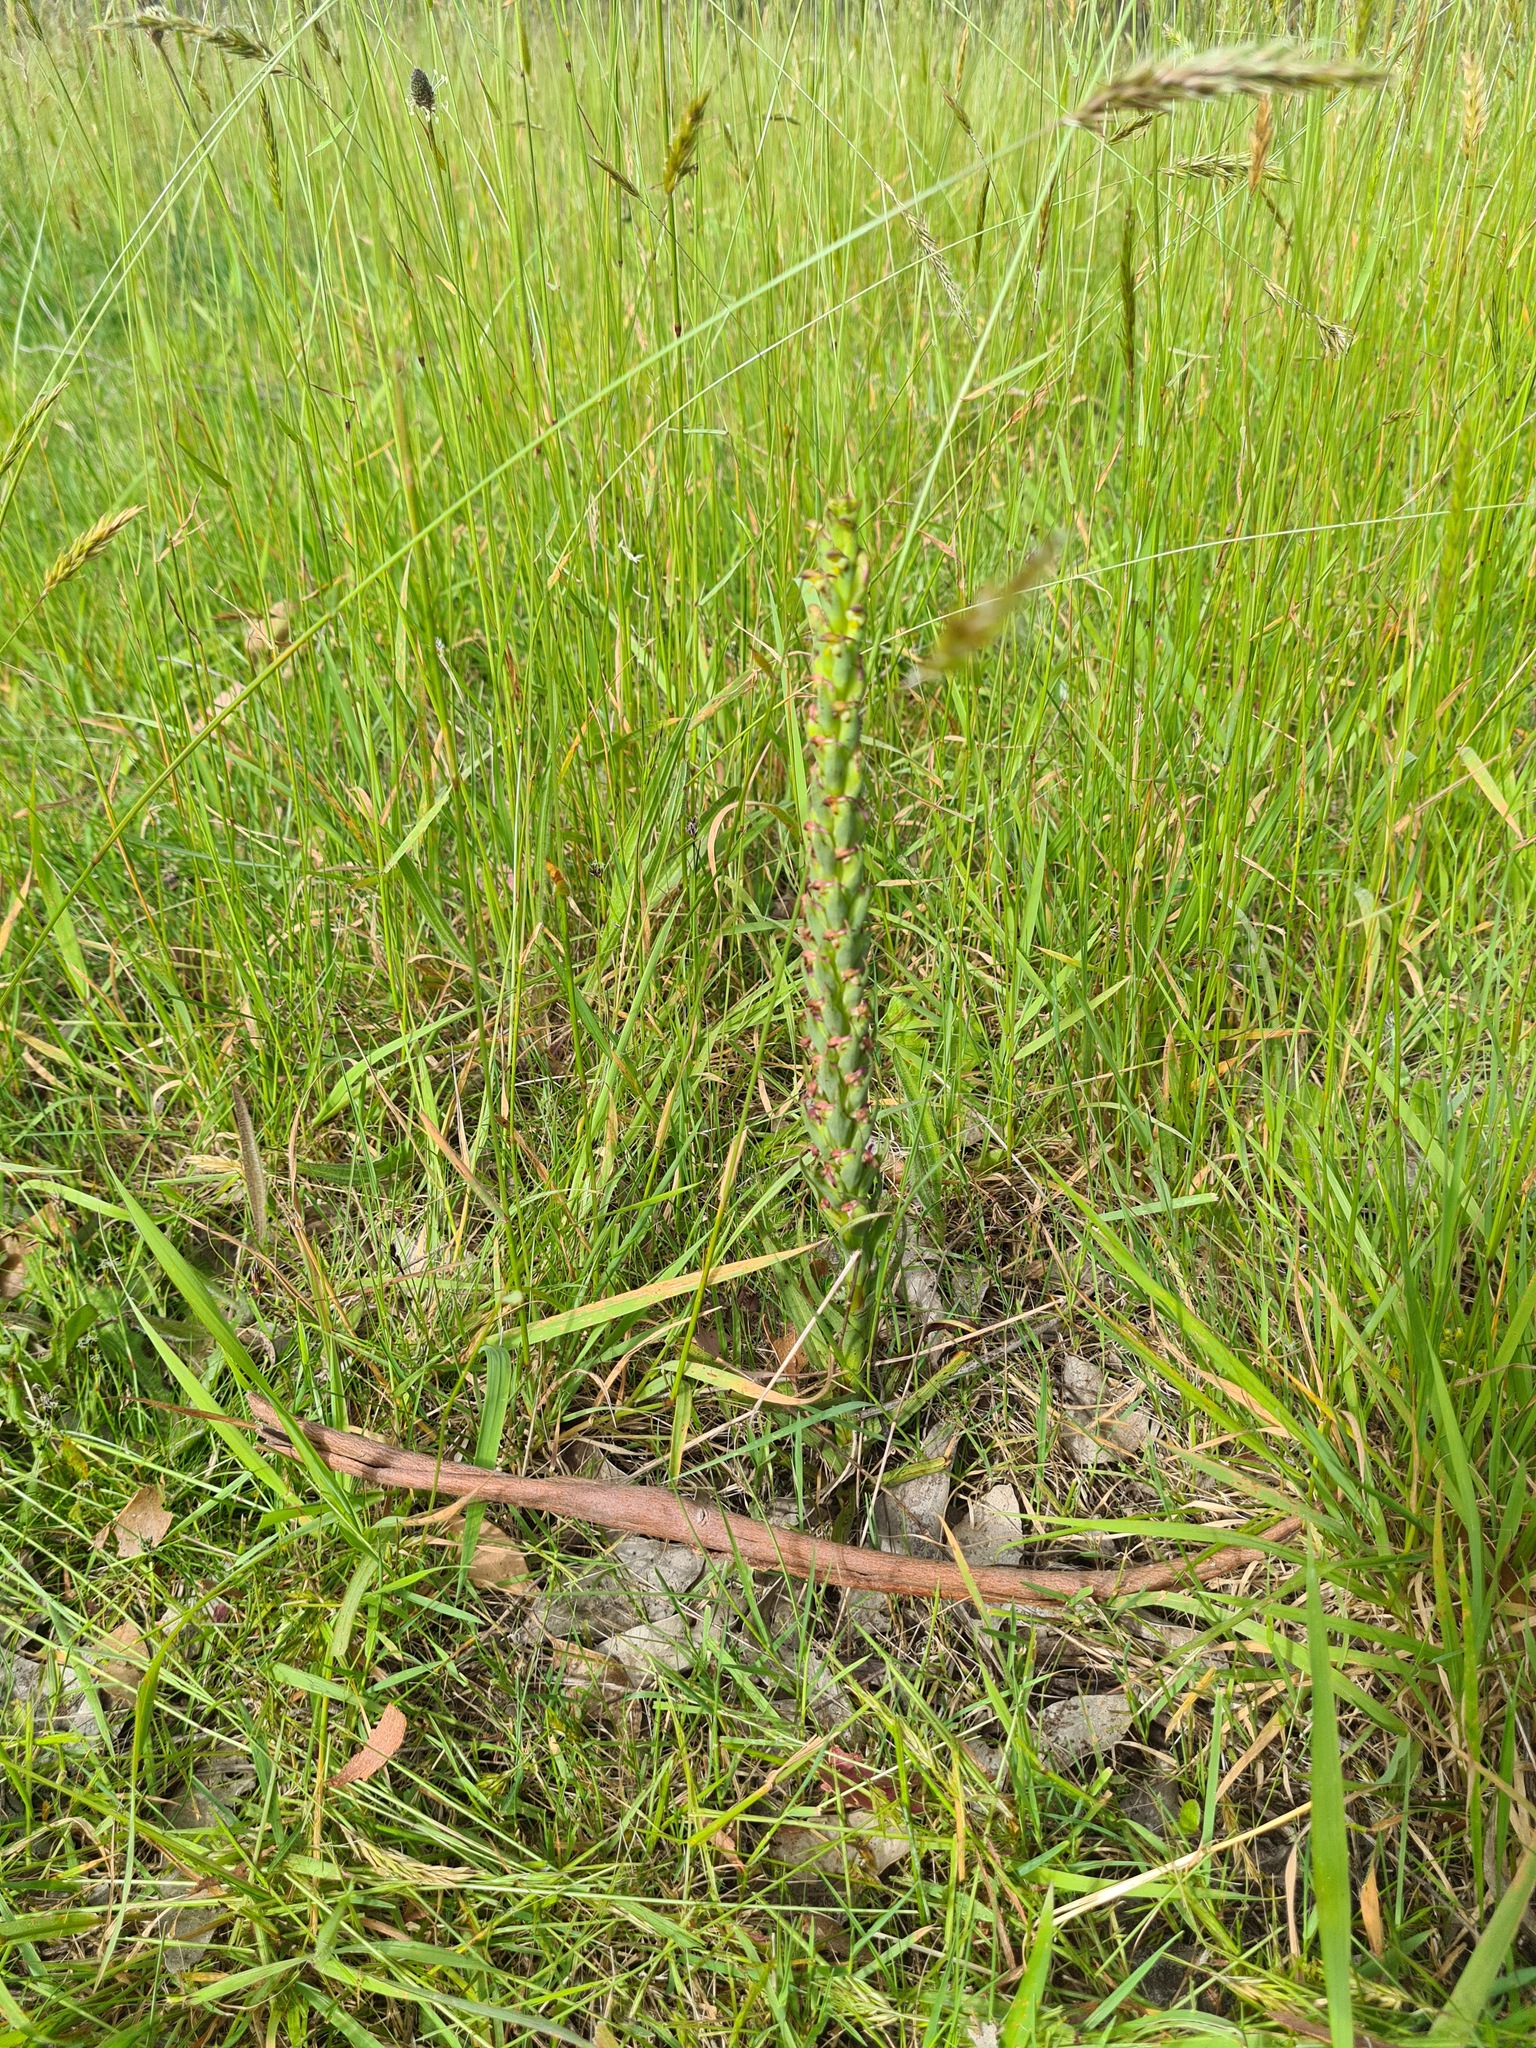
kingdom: Plantae
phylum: Tracheophyta
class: Liliopsida
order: Asparagales
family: Orchidaceae
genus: Disa
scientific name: Disa bracteata
